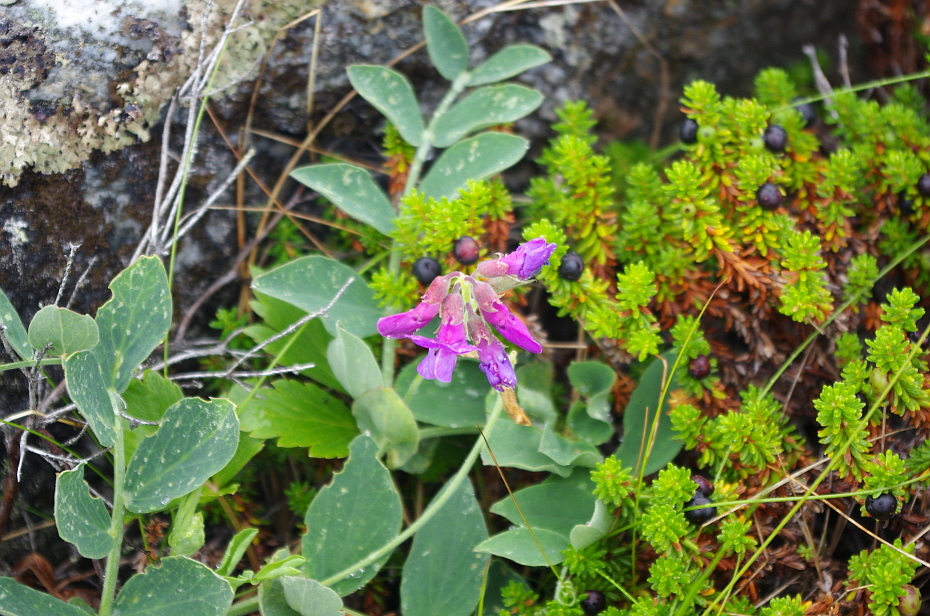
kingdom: Plantae
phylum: Tracheophyta
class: Magnoliopsida
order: Fabales
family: Fabaceae
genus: Lathyrus
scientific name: Lathyrus japonicus
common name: Sea pea
